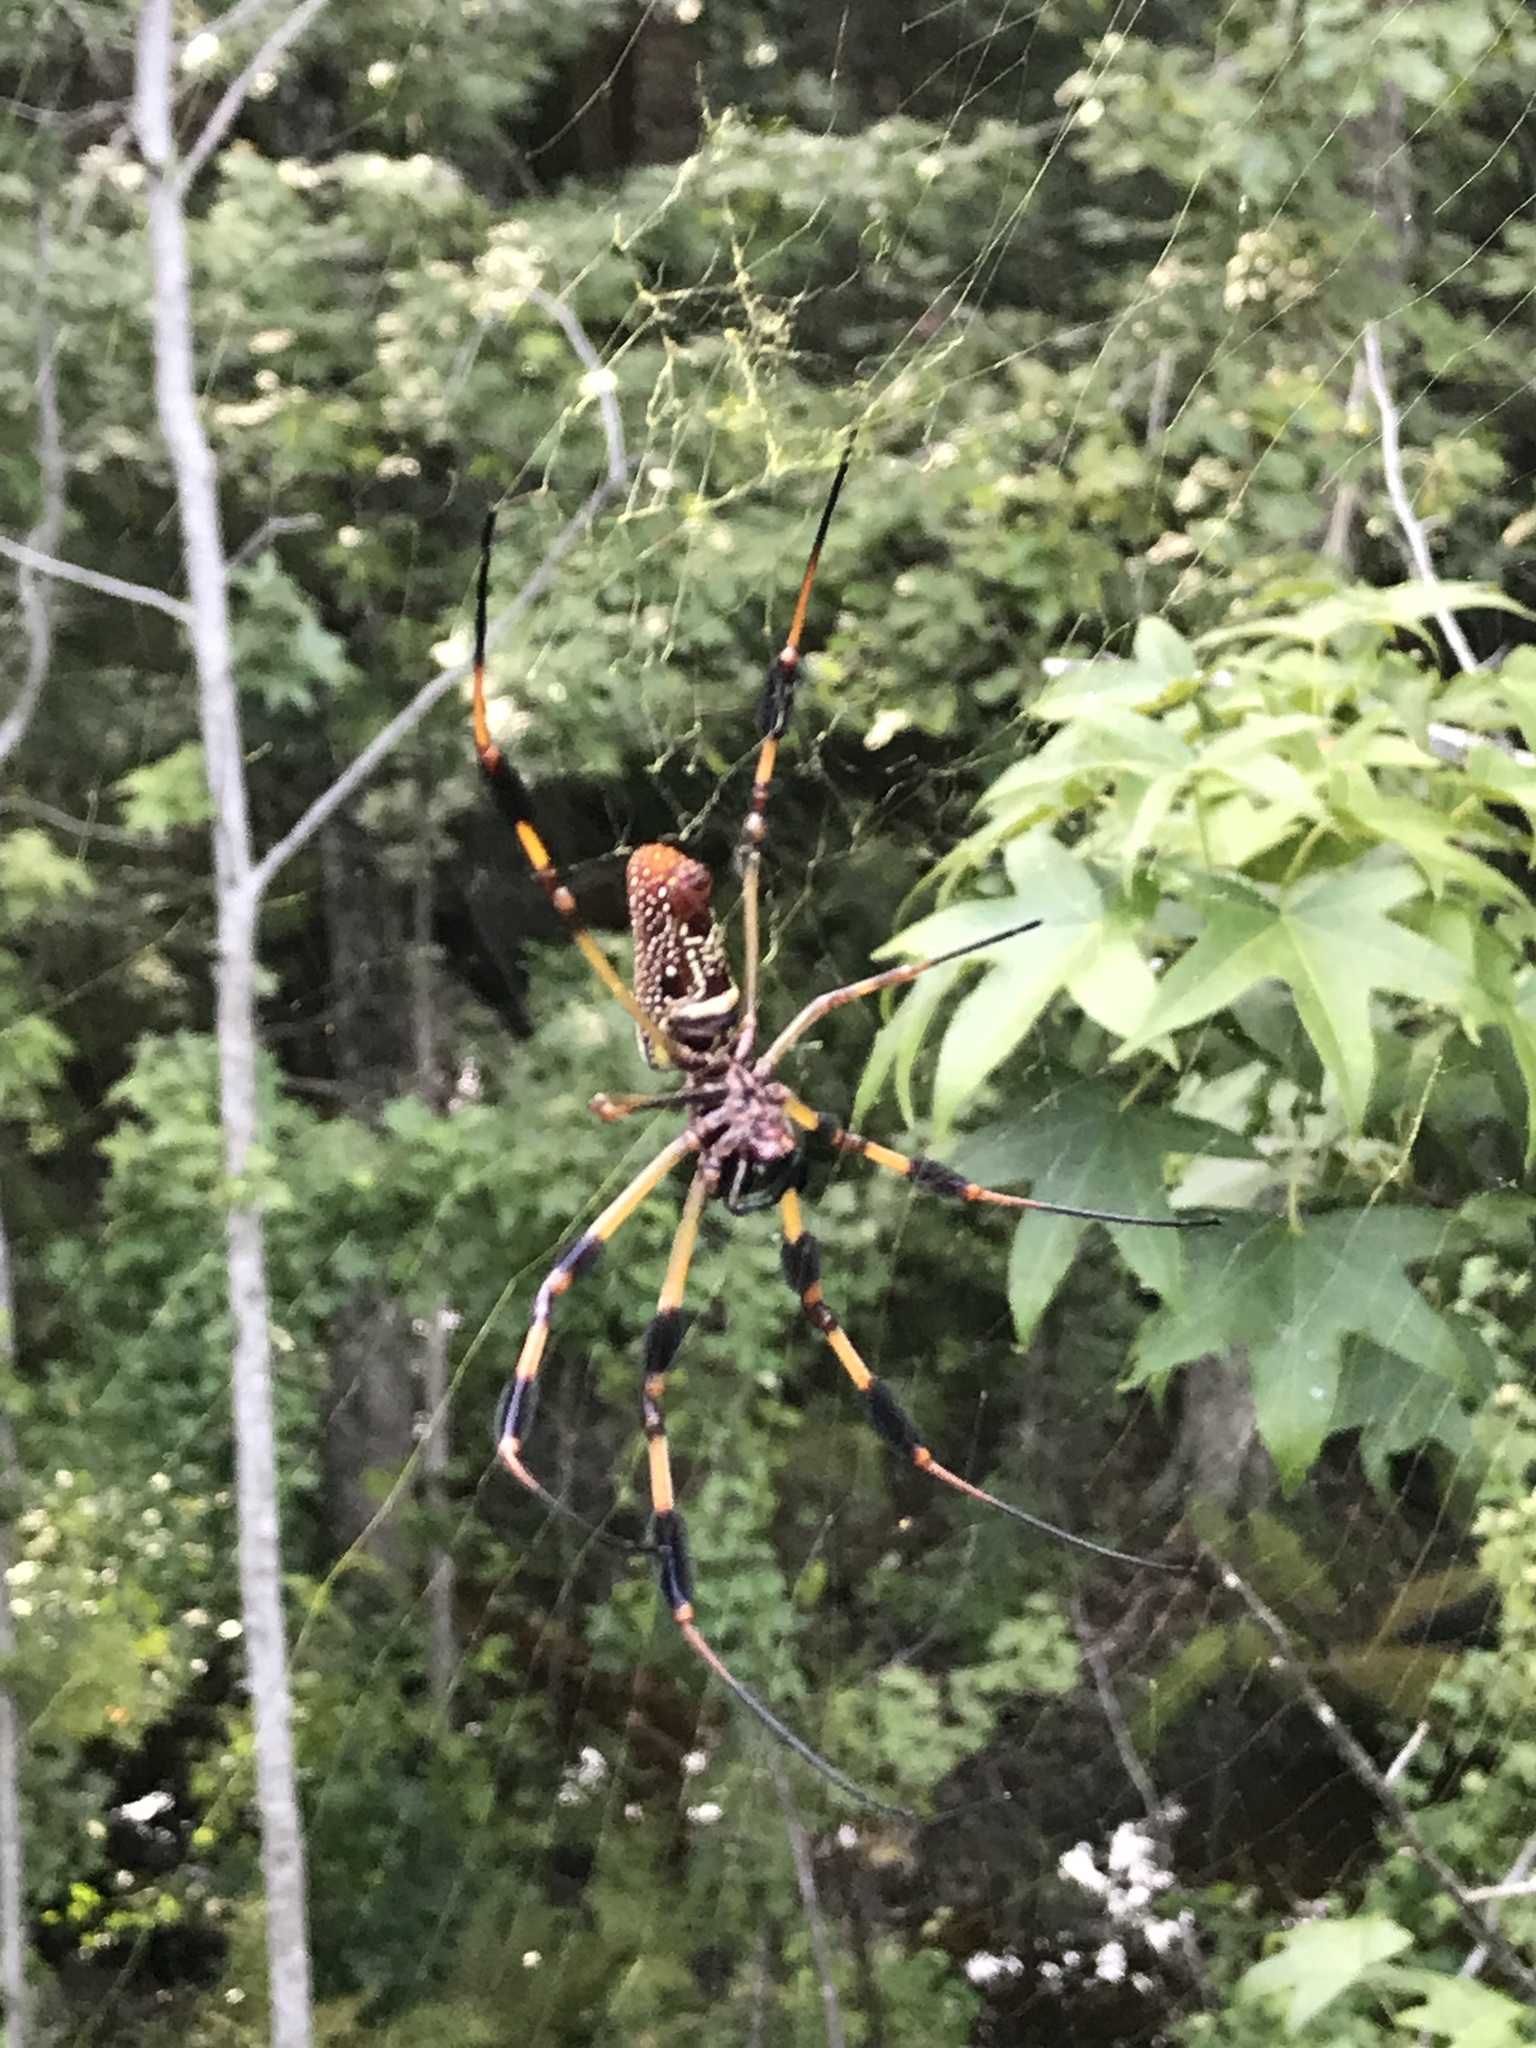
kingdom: Animalia
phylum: Arthropoda
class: Arachnida
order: Araneae
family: Araneidae
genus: Trichonephila
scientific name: Trichonephila clavipes
